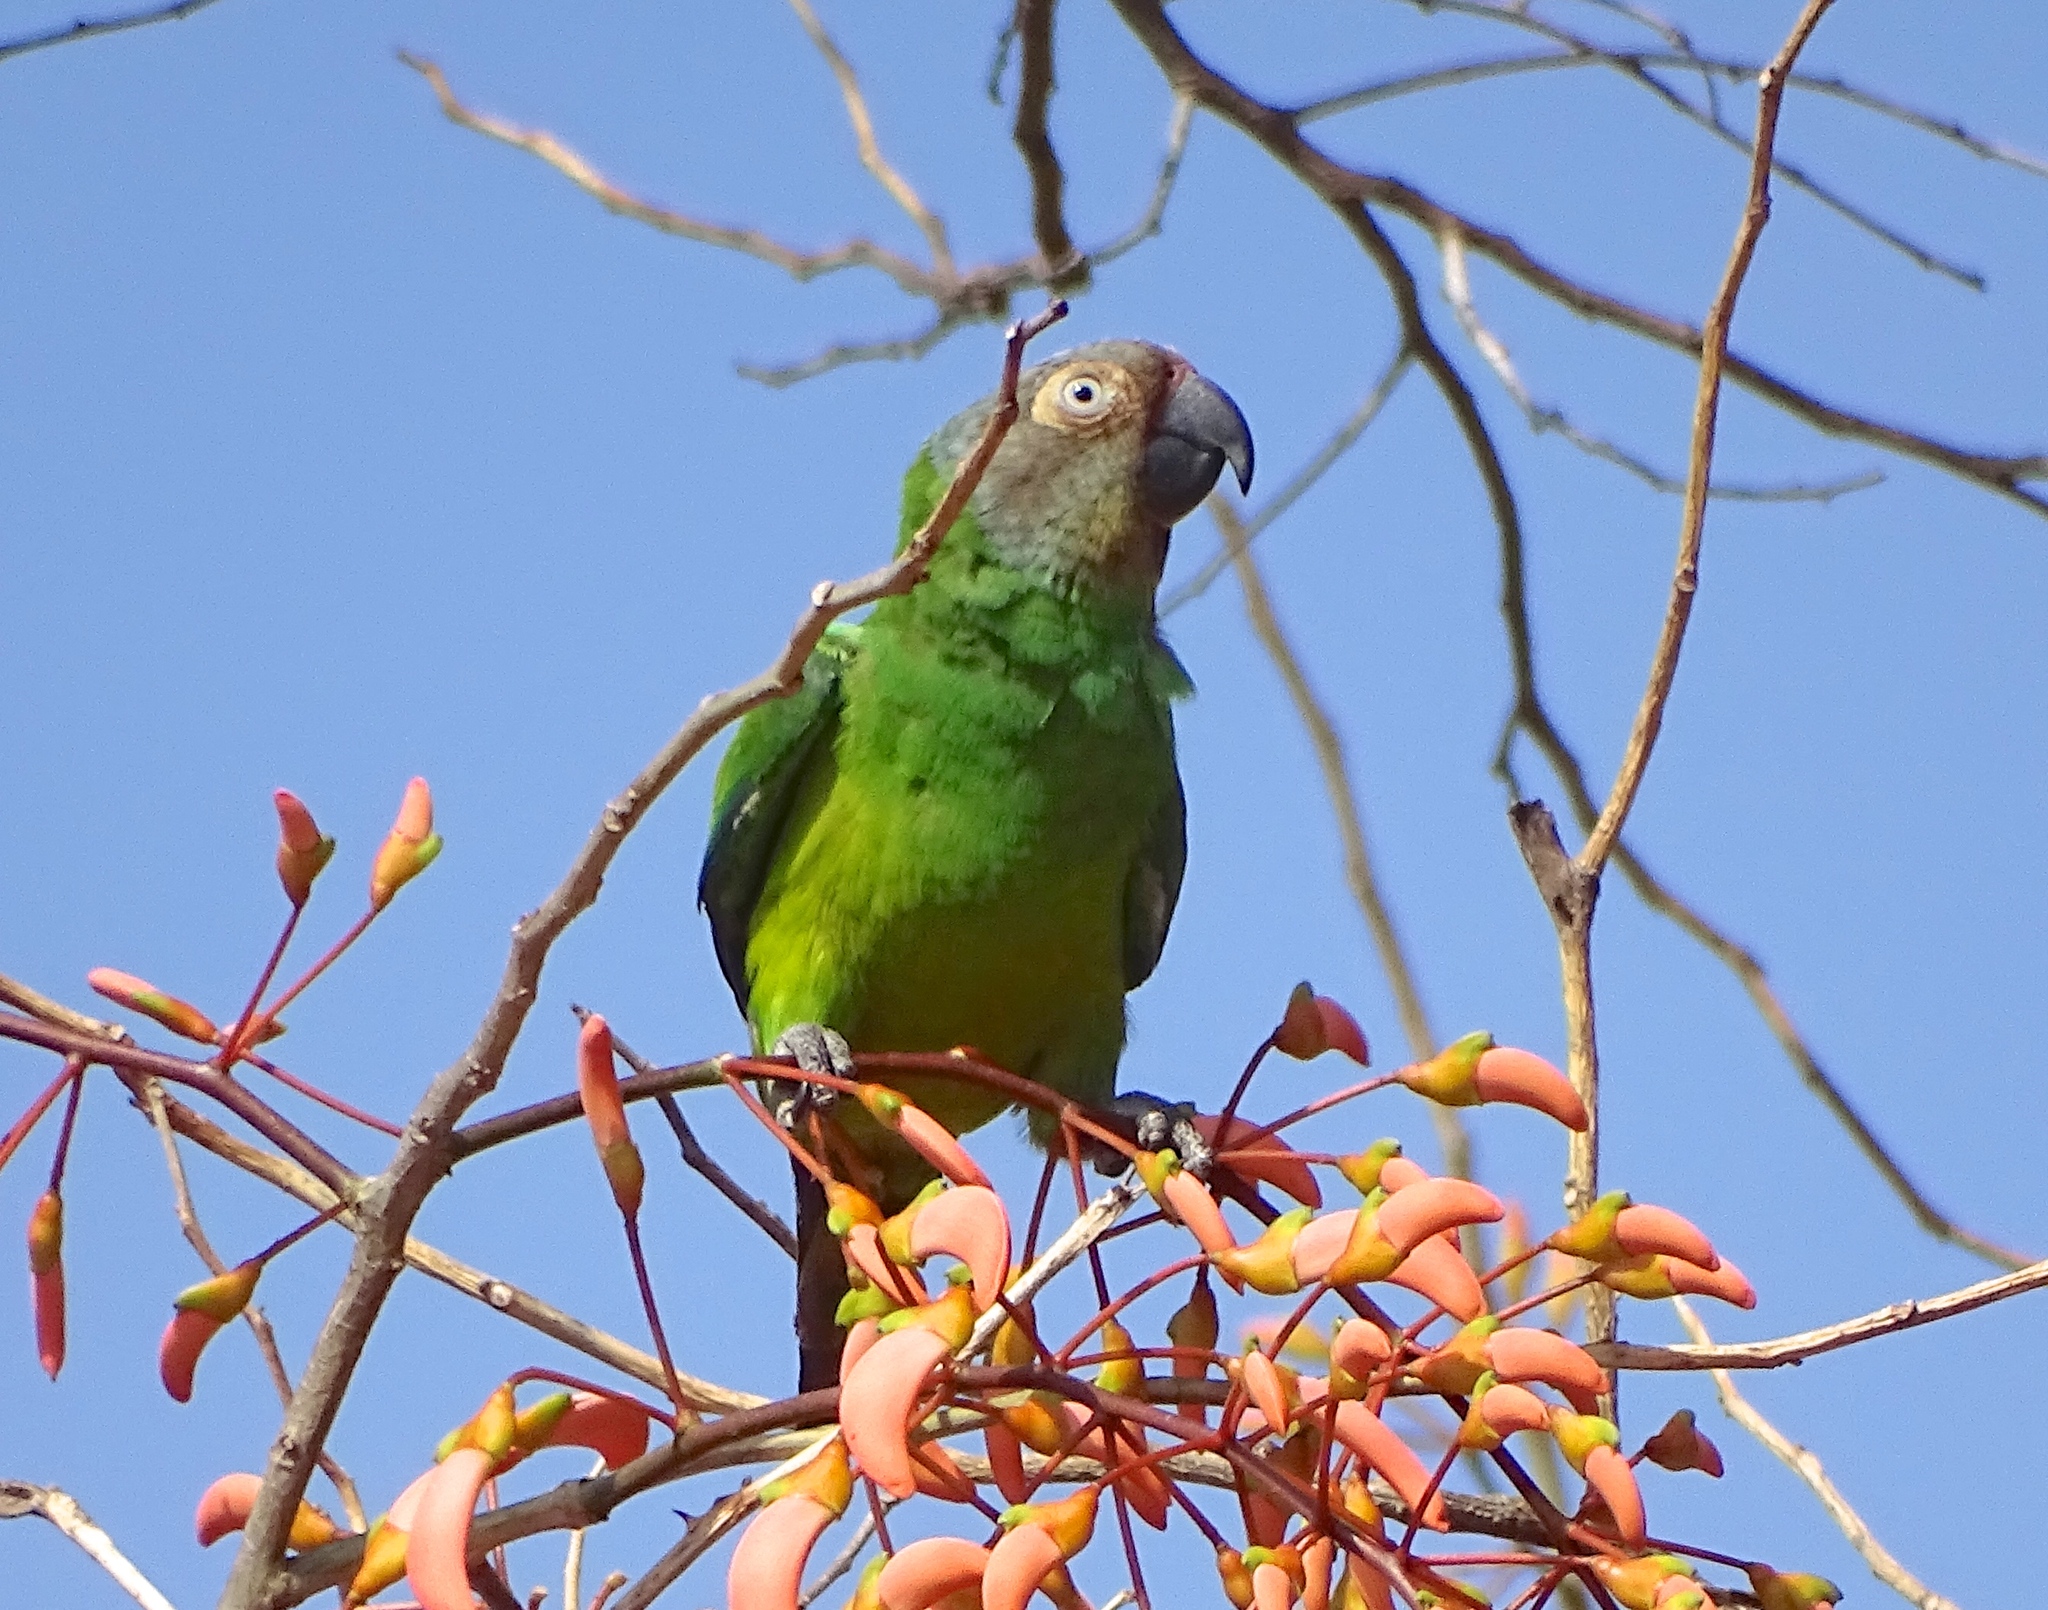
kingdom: Animalia
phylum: Chordata
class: Aves
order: Psittaciformes
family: Psittacidae
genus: Aratinga
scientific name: Aratinga weddellii
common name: Dusky-headed parakeet
